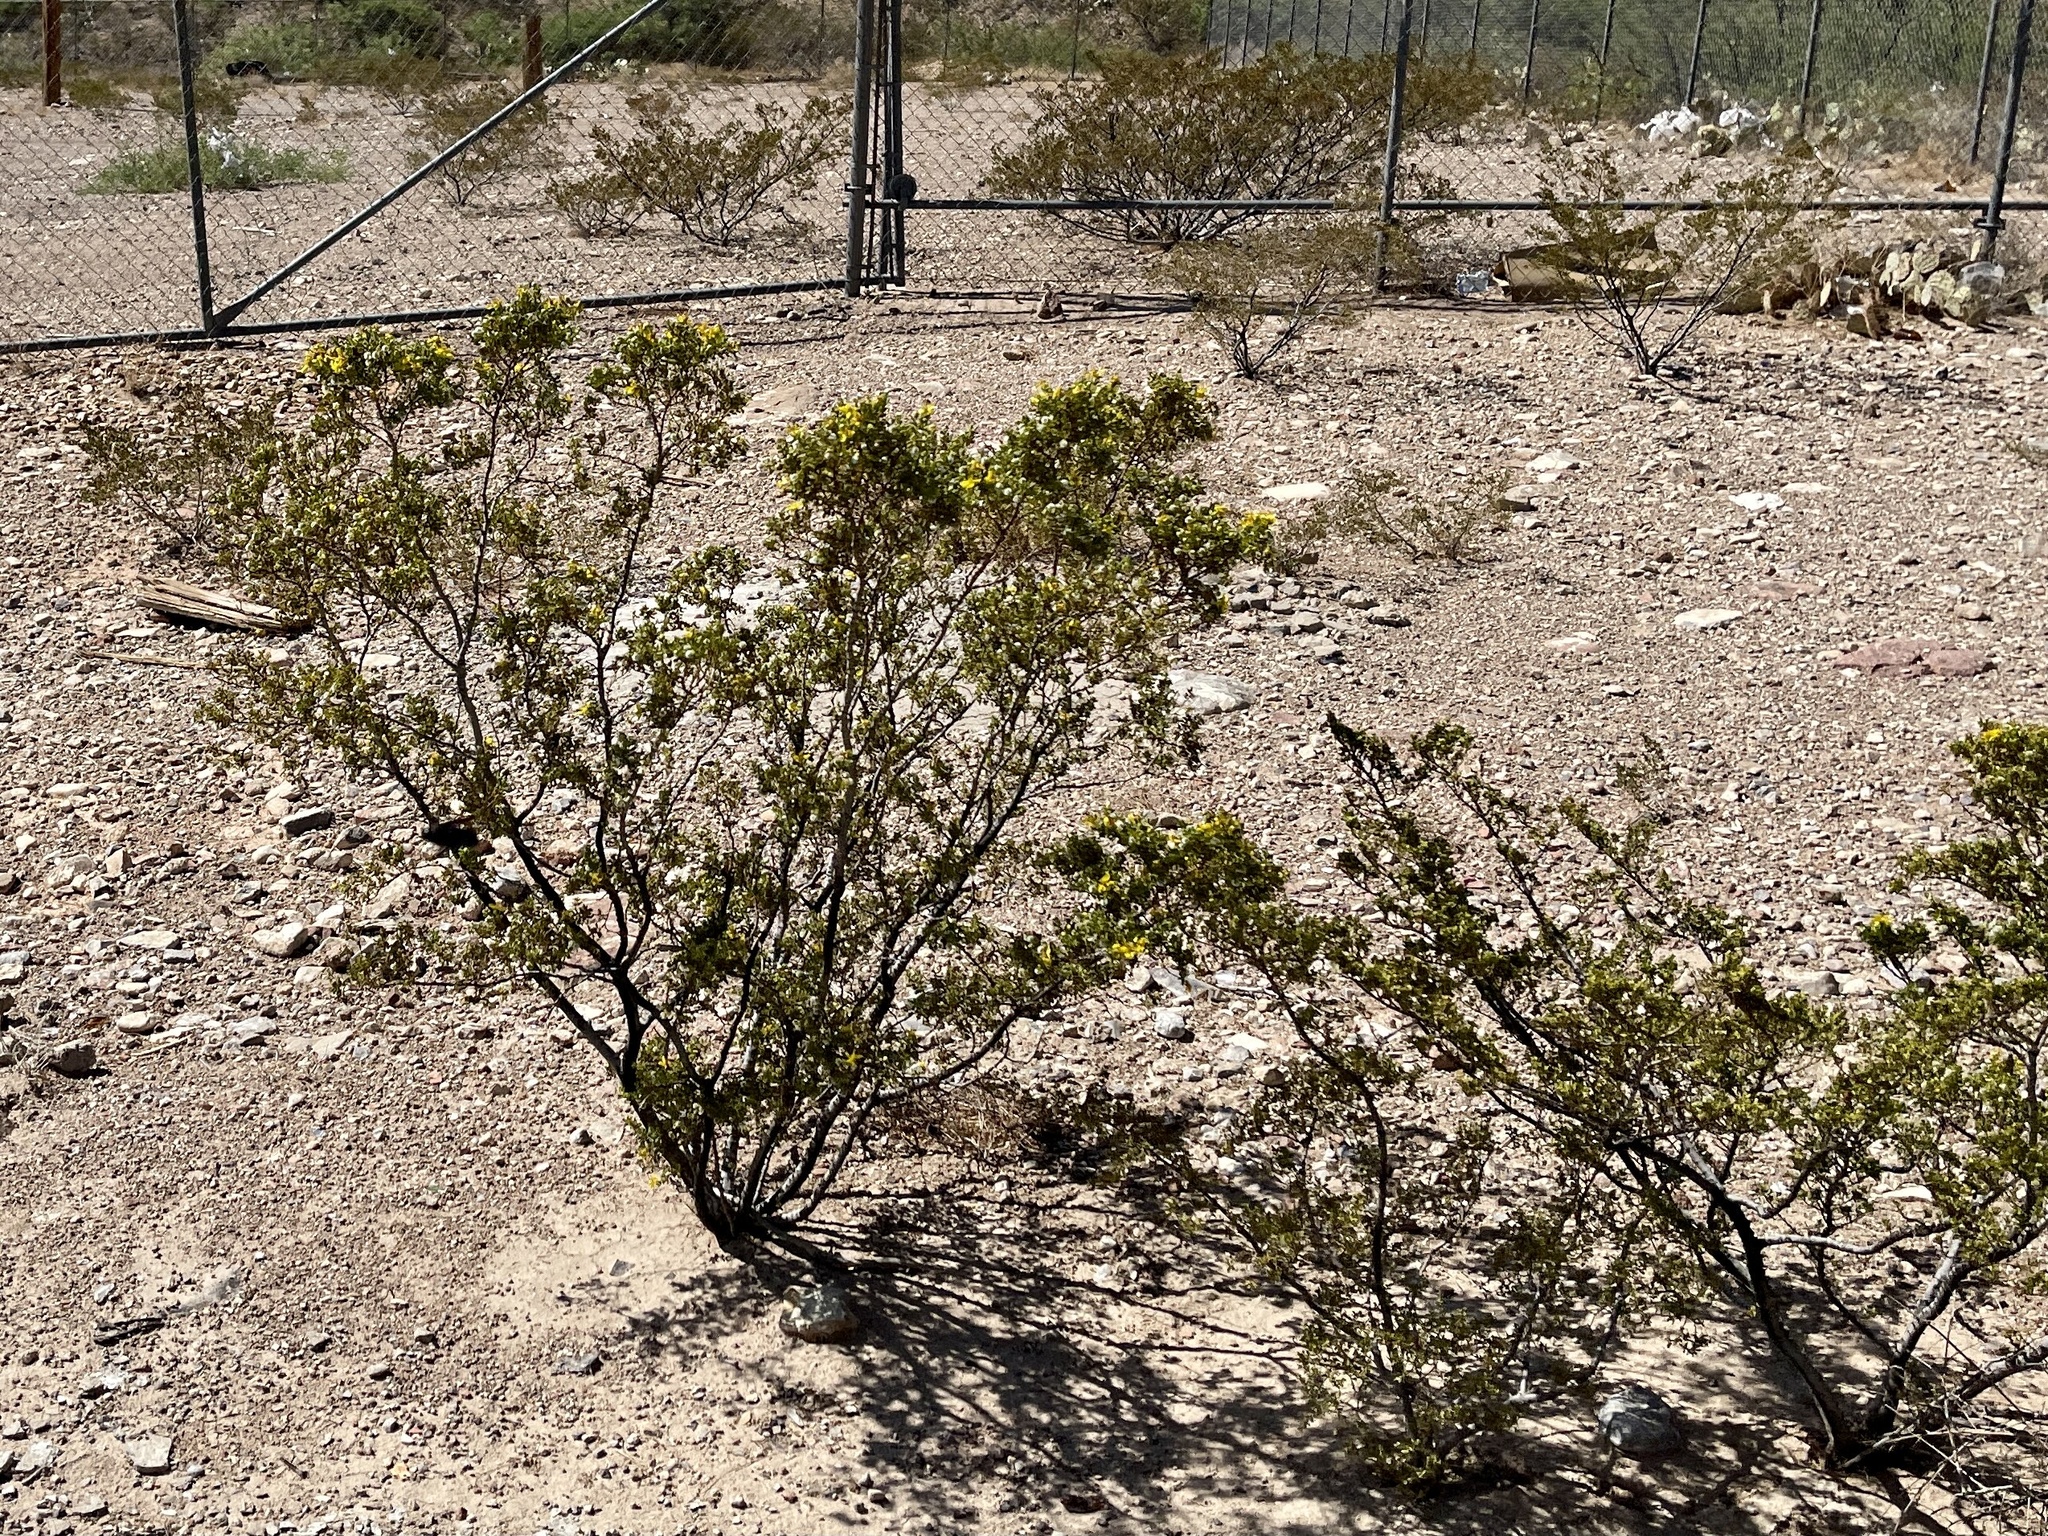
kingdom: Plantae
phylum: Tracheophyta
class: Magnoliopsida
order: Zygophyllales
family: Zygophyllaceae
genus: Larrea
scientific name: Larrea tridentata
